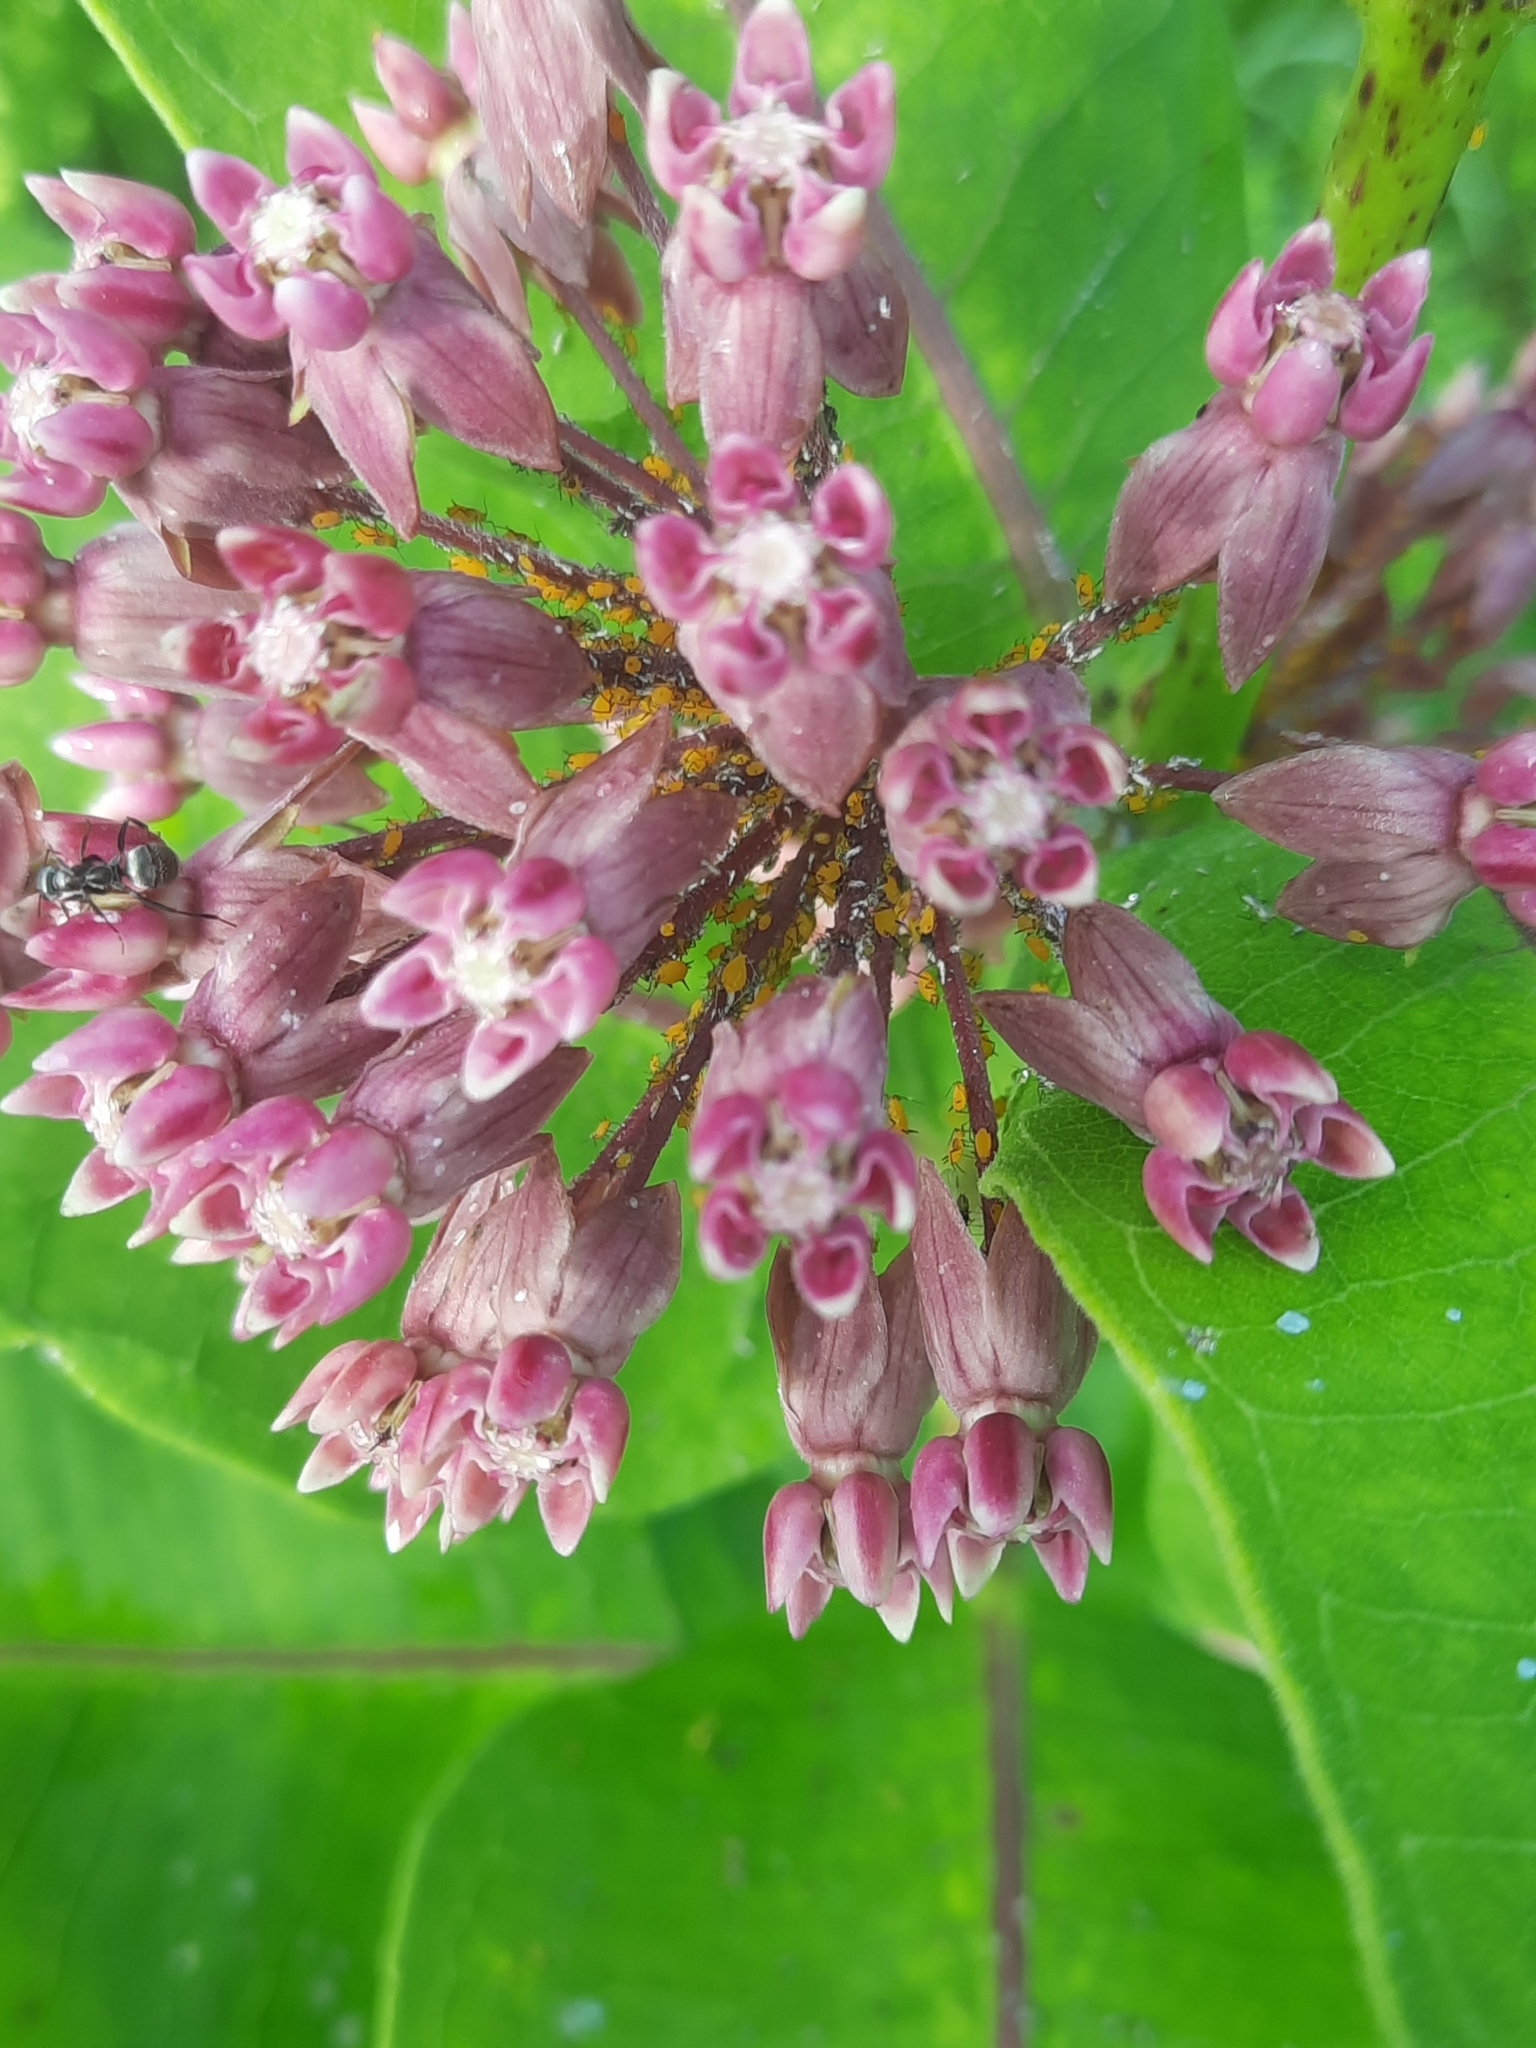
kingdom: Plantae
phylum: Tracheophyta
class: Magnoliopsida
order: Gentianales
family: Apocynaceae
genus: Asclepias
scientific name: Asclepias syriaca
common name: Common milkweed
